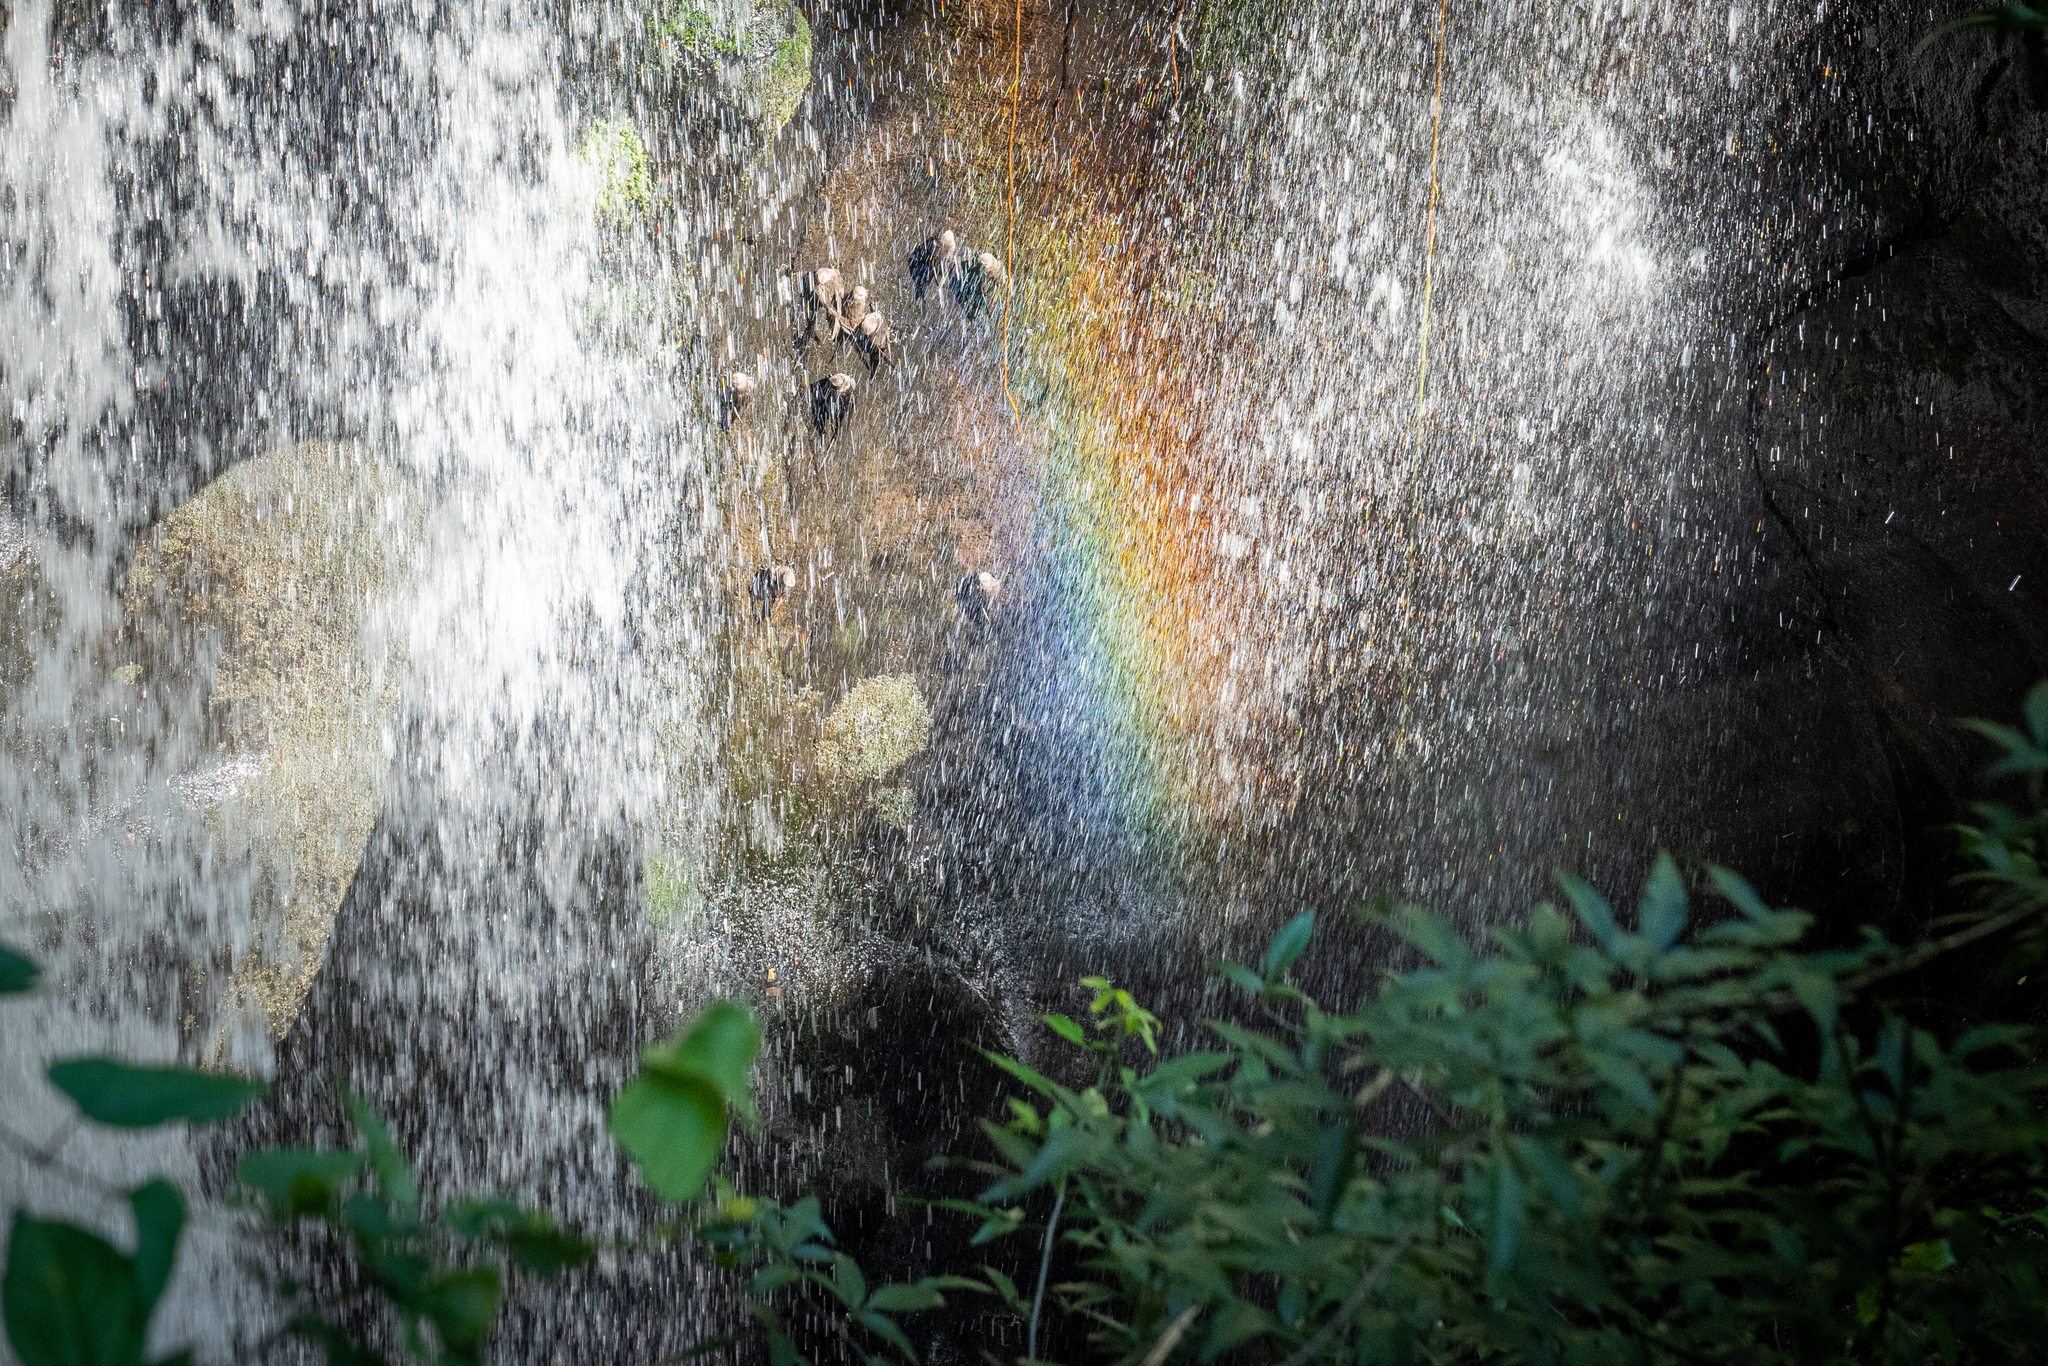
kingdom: Animalia
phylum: Chordata
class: Aves
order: Apodiformes
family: Apodidae
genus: Cypseloides
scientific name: Cypseloides senex
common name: Great dusky swift
